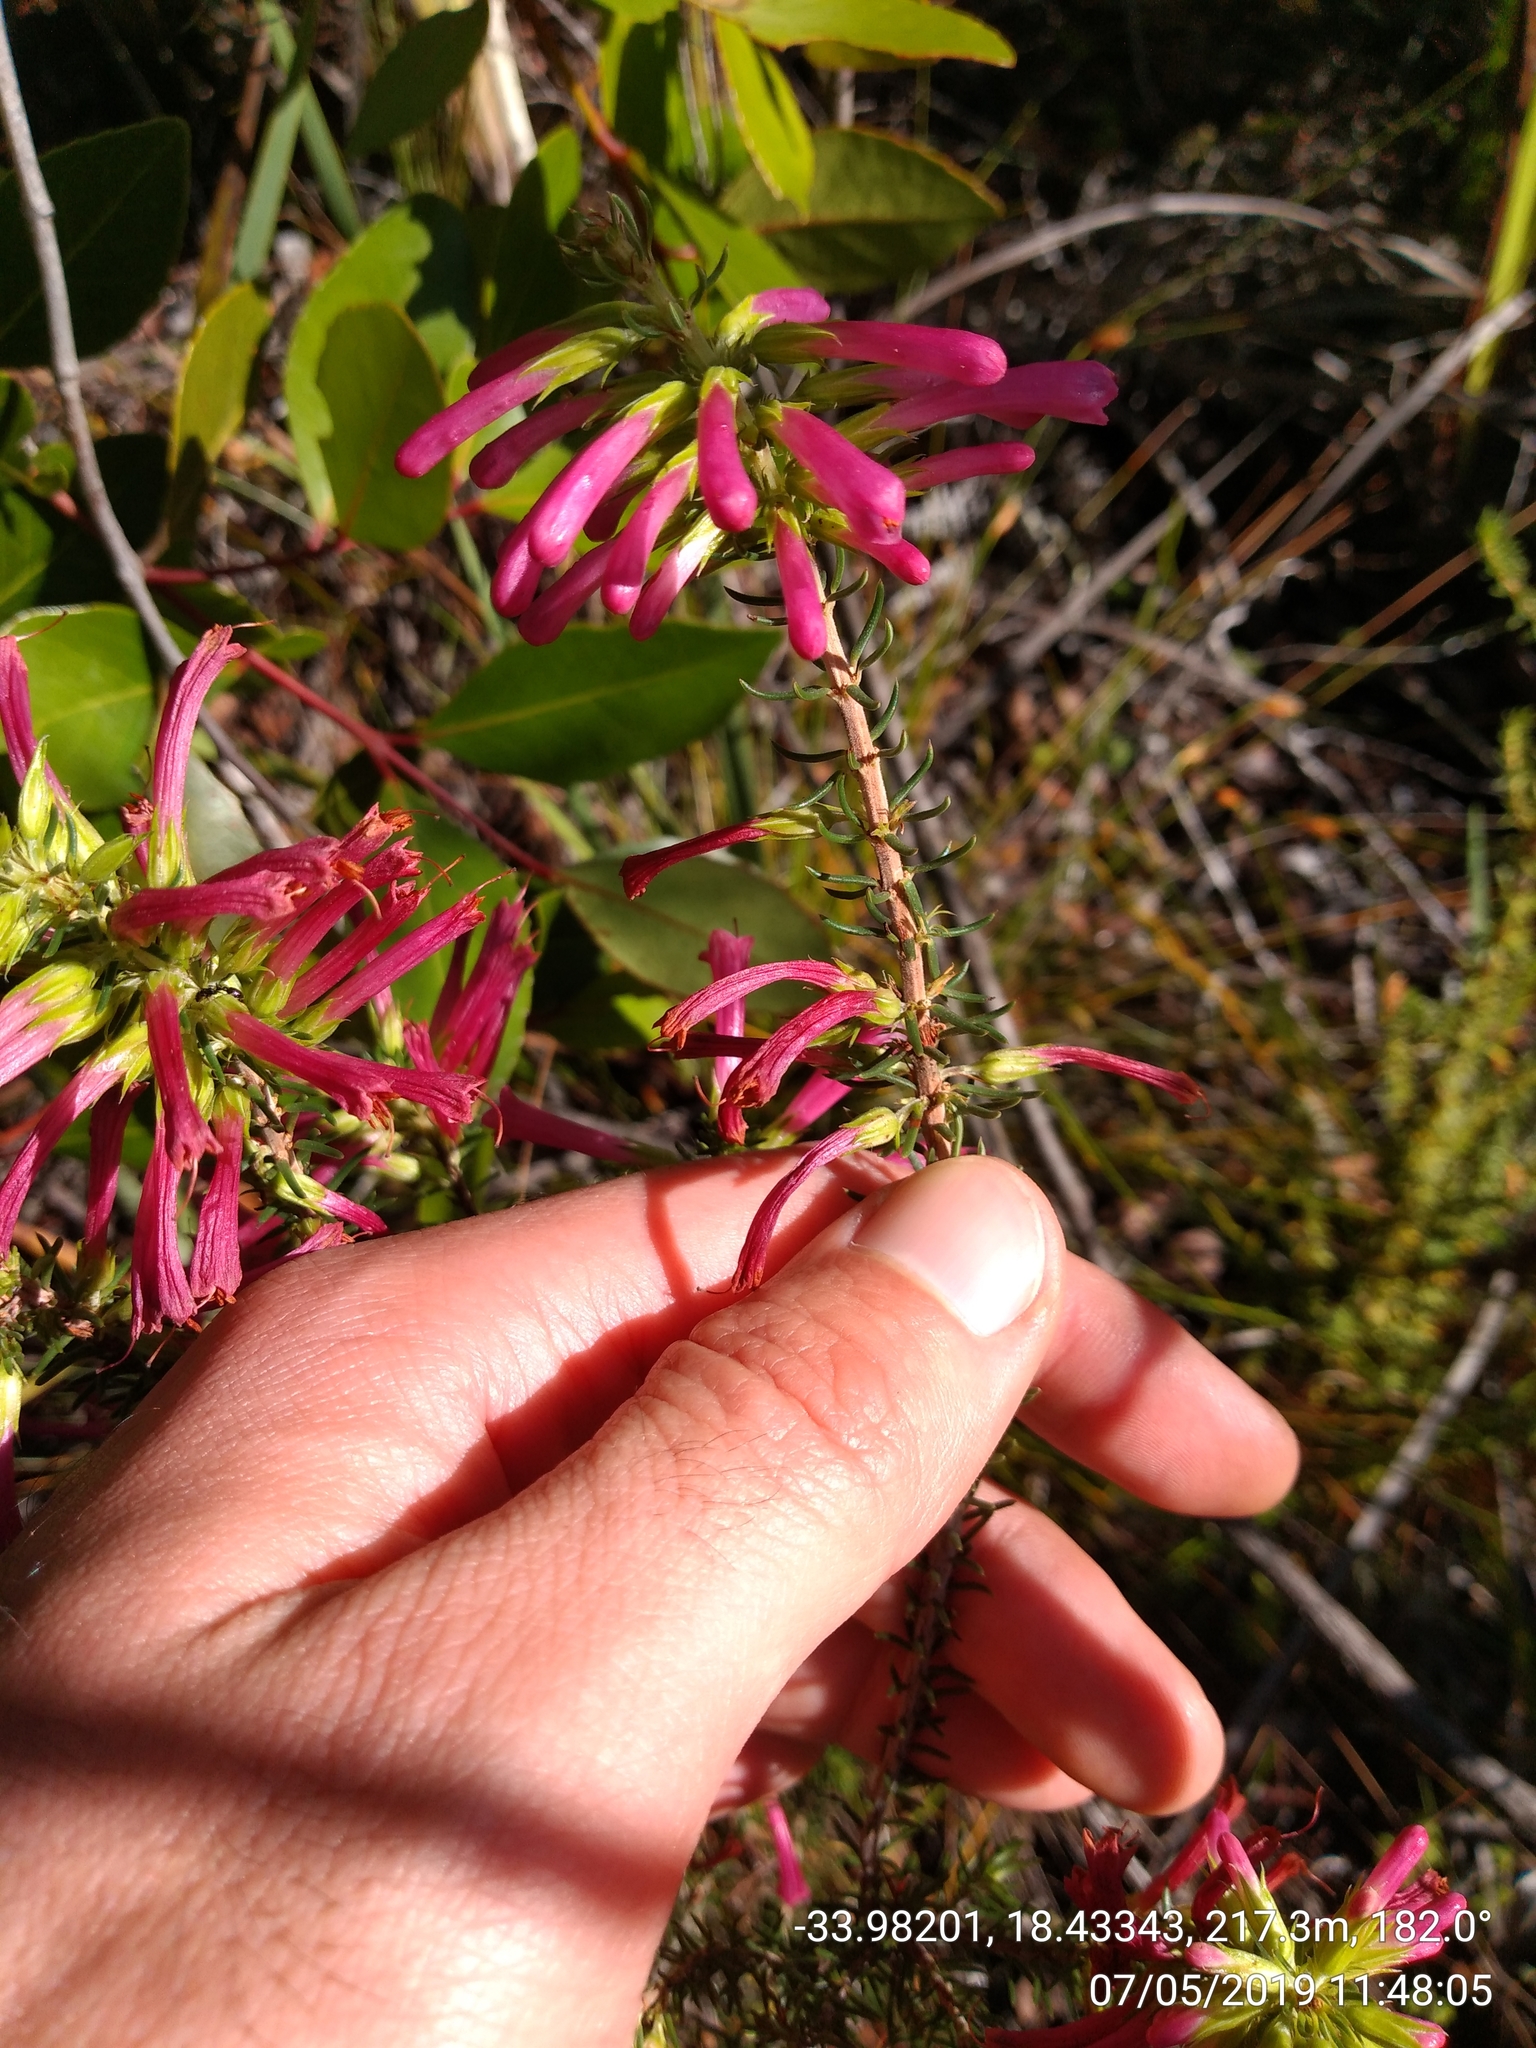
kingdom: Plantae
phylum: Tracheophyta
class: Magnoliopsida
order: Ericales
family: Ericaceae
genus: Erica
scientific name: Erica abietina
